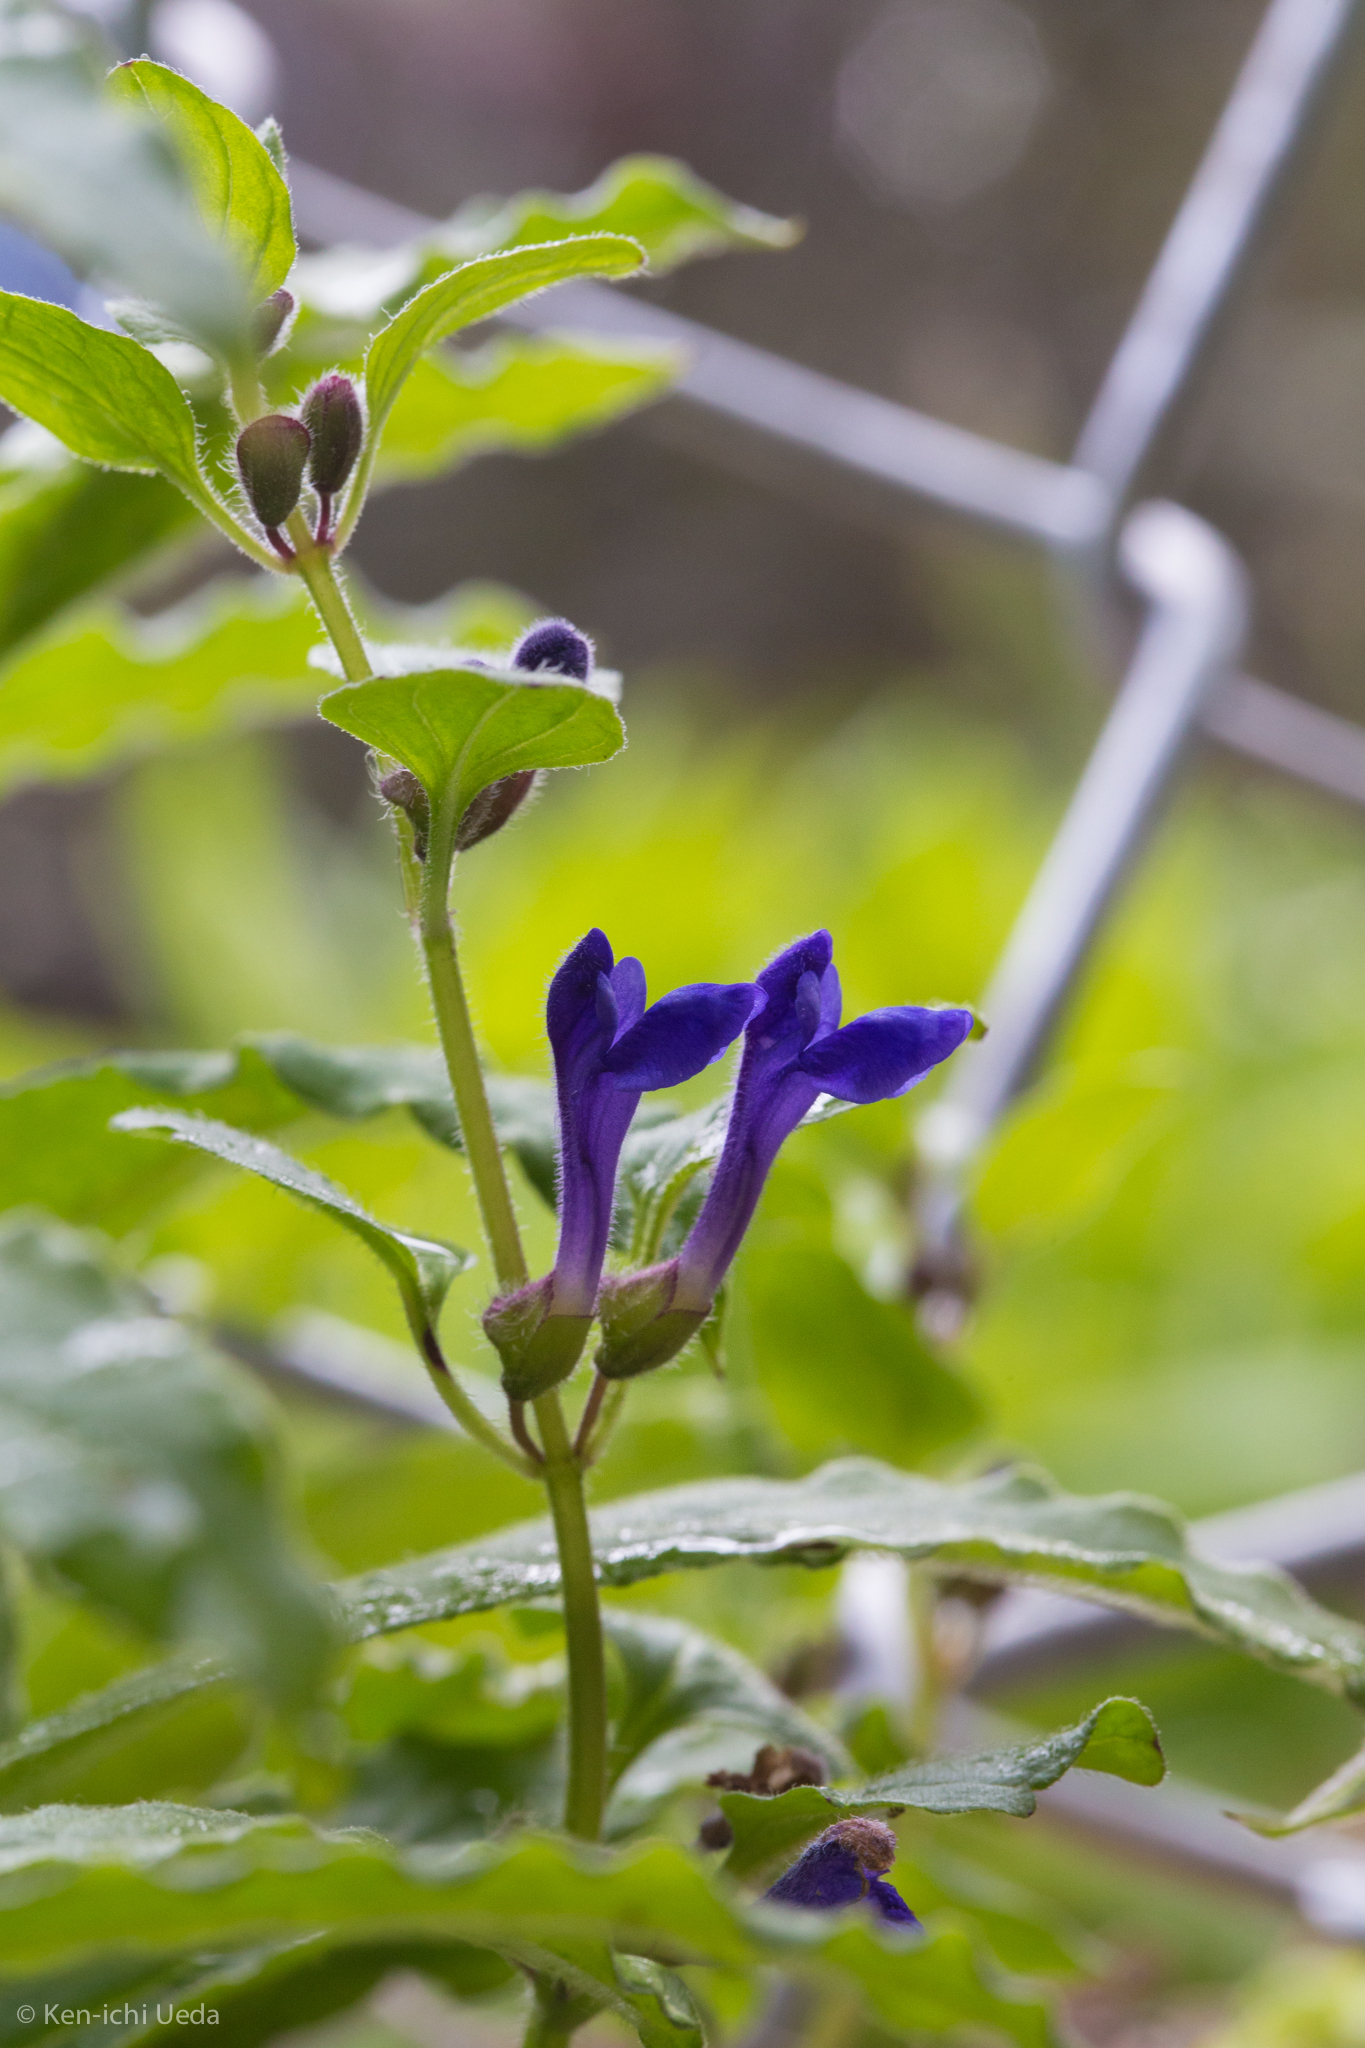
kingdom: Plantae
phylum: Tracheophyta
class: Magnoliopsida
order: Lamiales
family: Lamiaceae
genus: Scutellaria
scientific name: Scutellaria tuberosa
